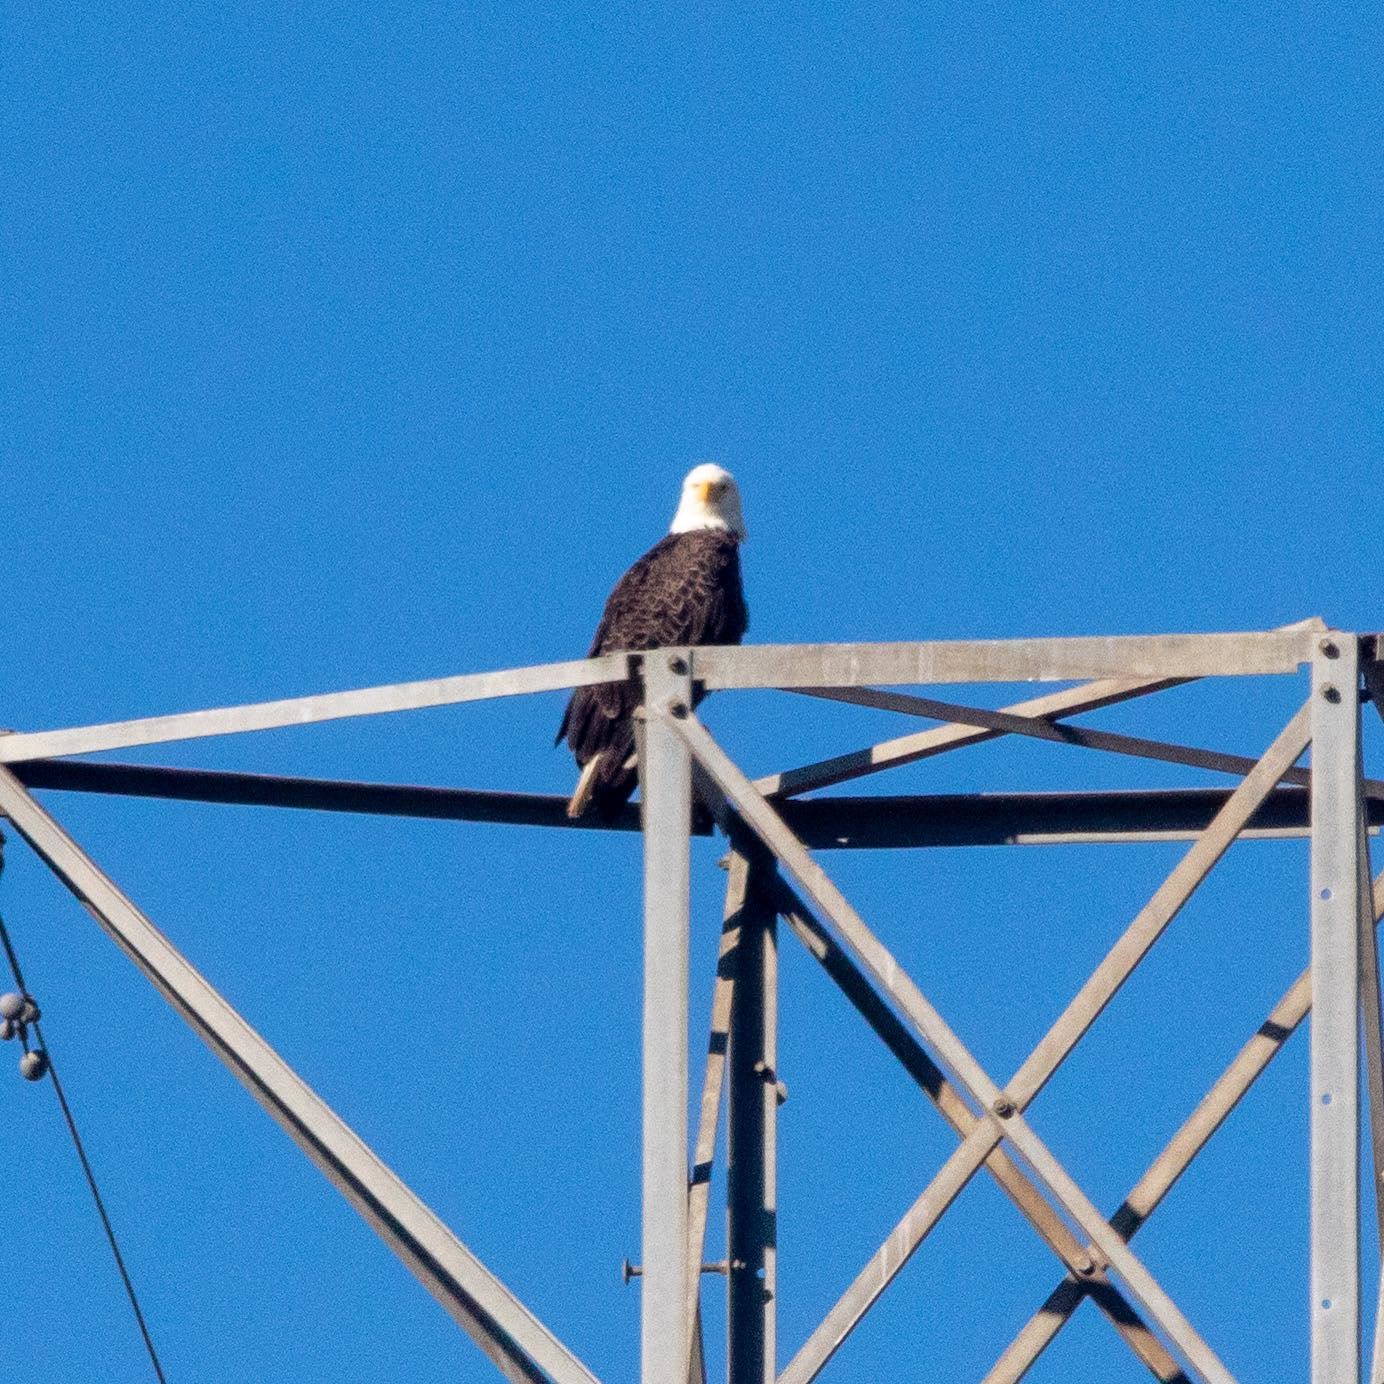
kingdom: Animalia
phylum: Chordata
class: Aves
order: Accipitriformes
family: Accipitridae
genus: Haliaeetus
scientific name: Haliaeetus leucocephalus
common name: Bald eagle
